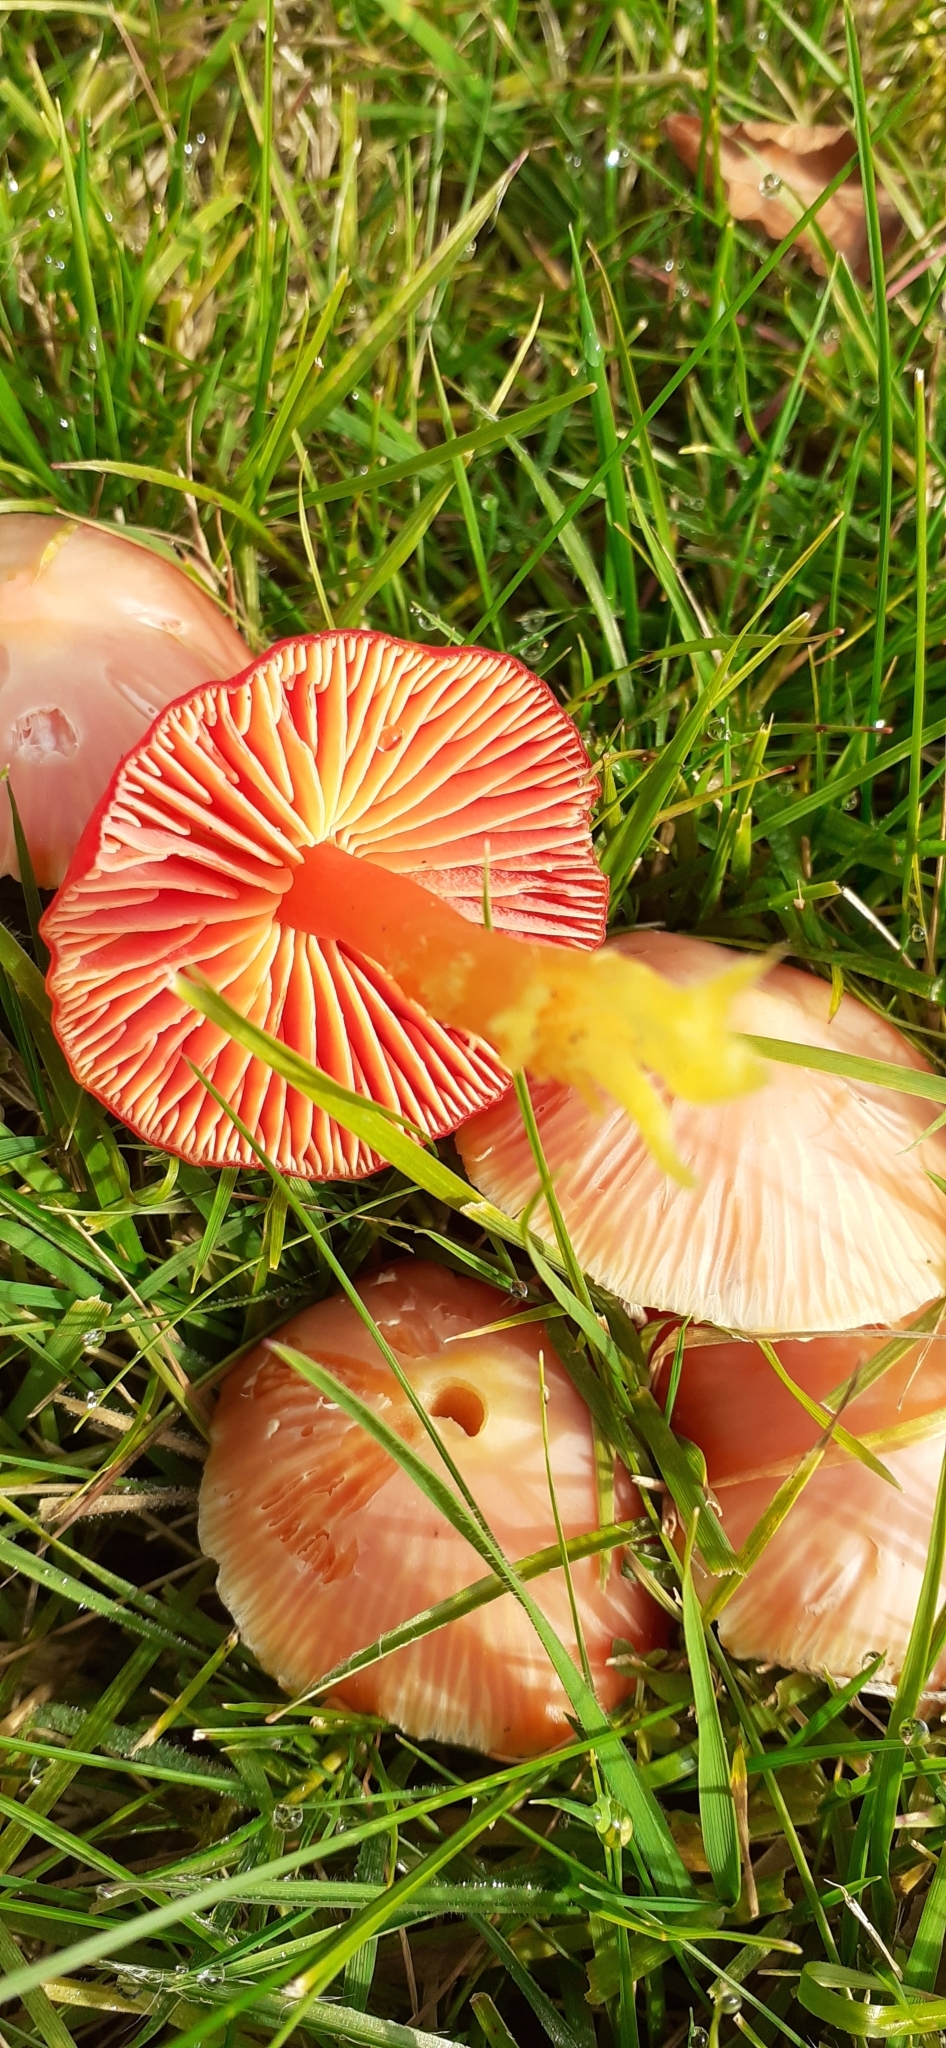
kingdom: Fungi
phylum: Basidiomycota
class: Agaricomycetes
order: Agaricales
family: Hygrophoraceae
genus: Hygrocybe
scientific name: Hygrocybe coccinea
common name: Scarlet hood
